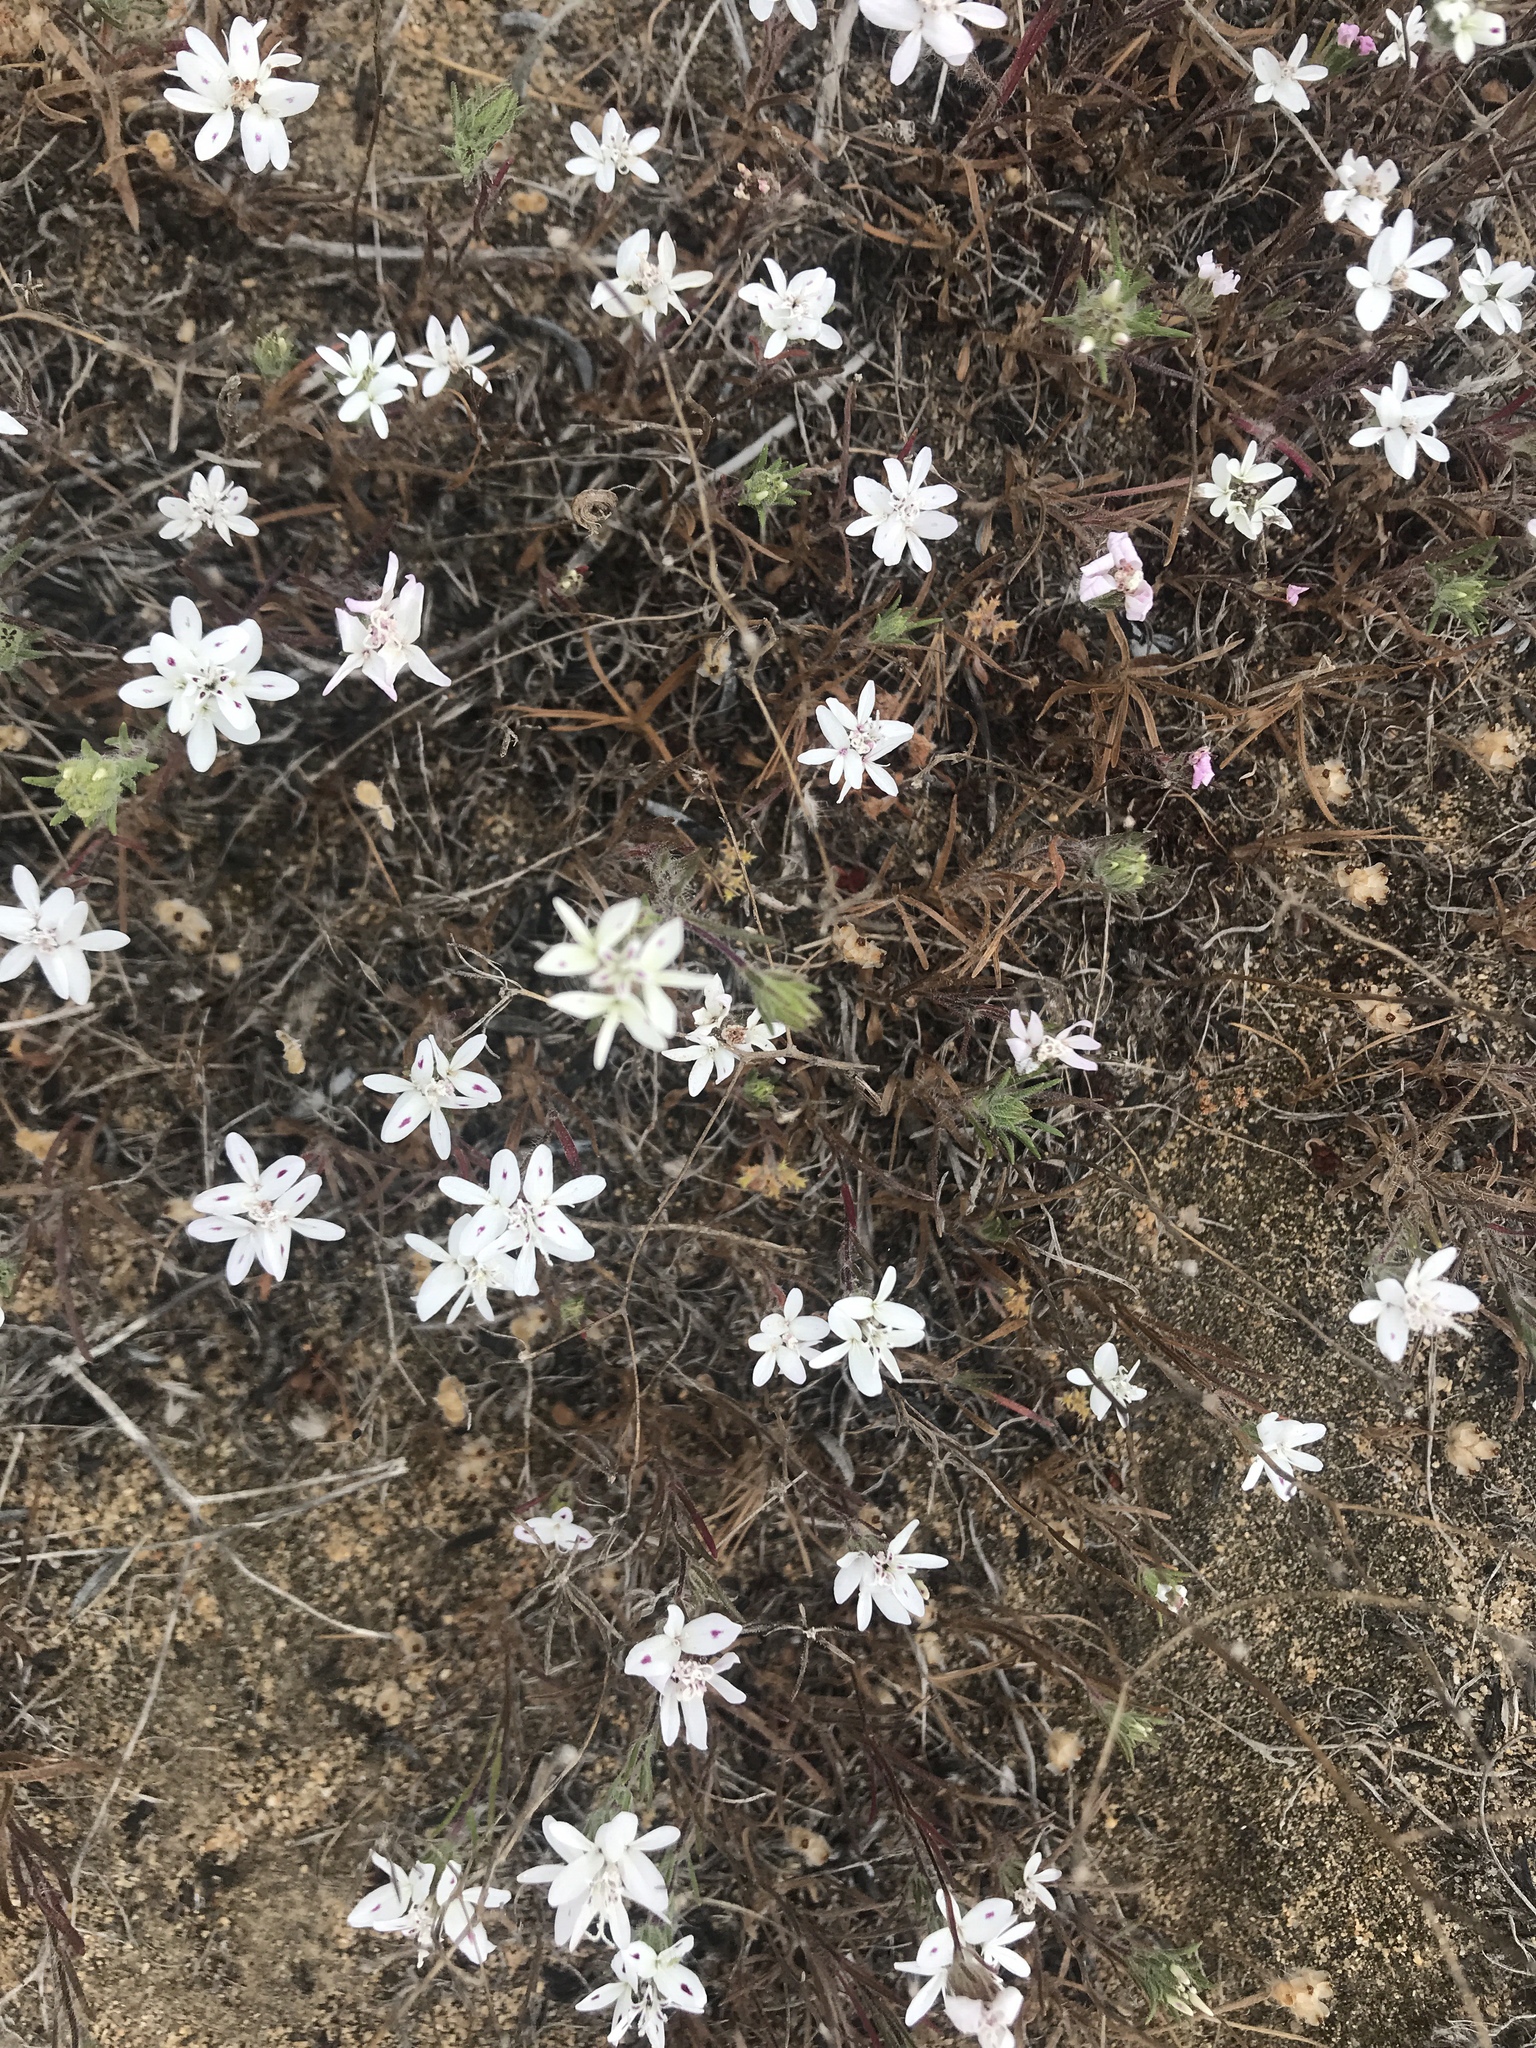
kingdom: Plantae
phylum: Tracheophyta
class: Magnoliopsida
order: Asterales
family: Asteraceae
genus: Osmadenia
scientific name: Osmadenia tenella
